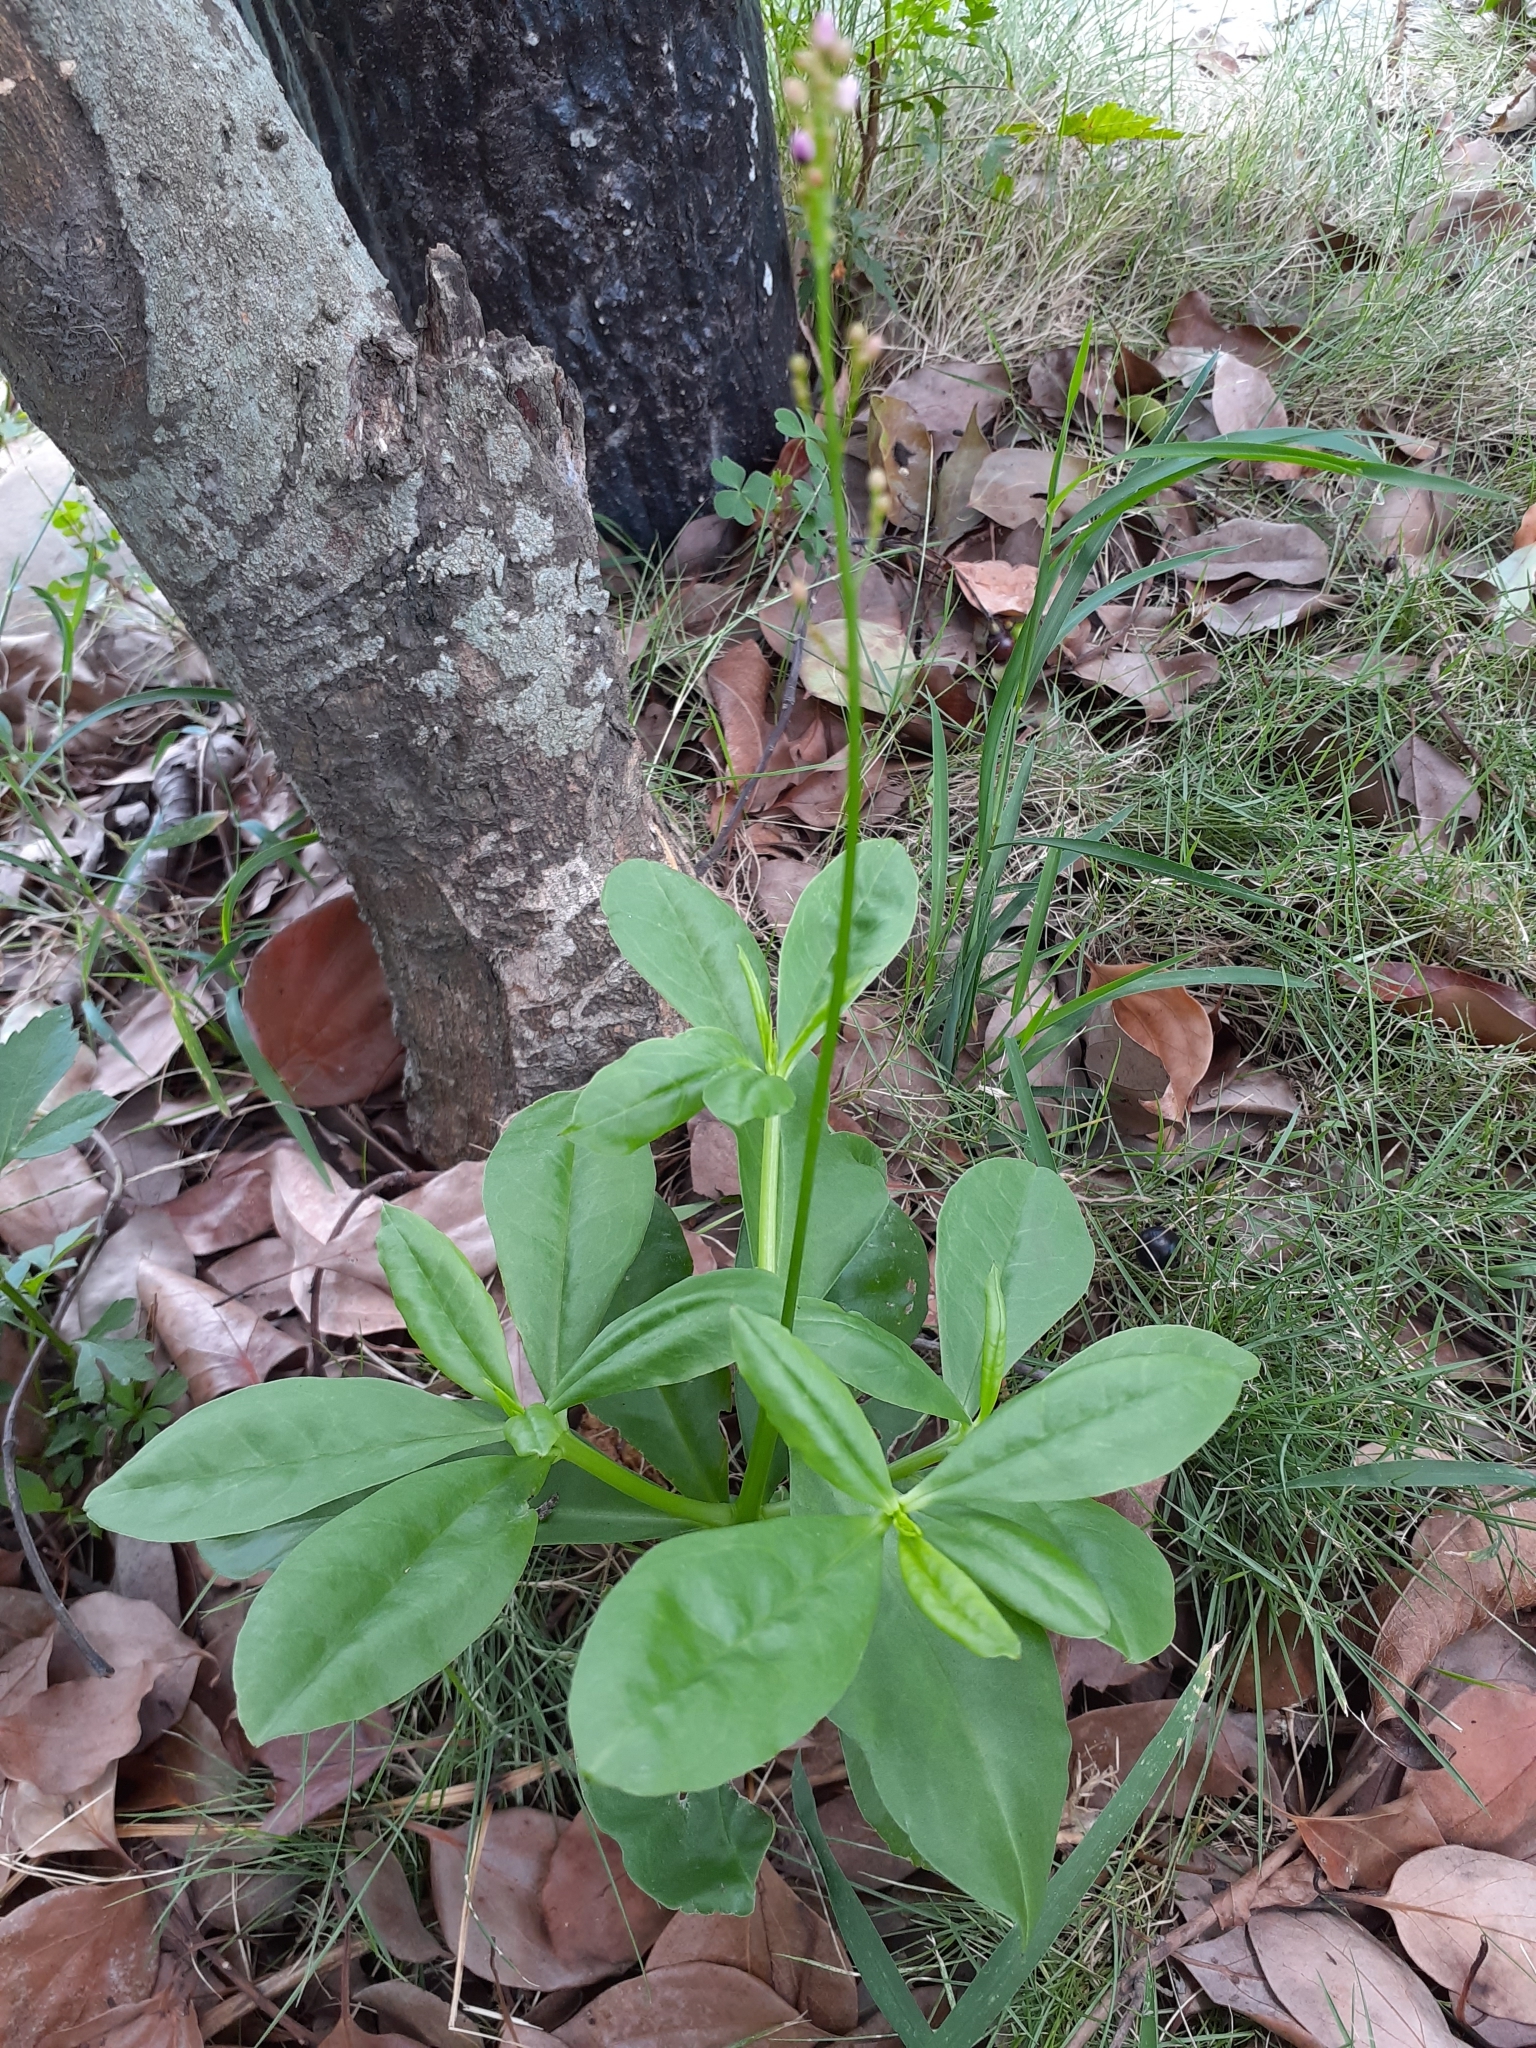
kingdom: Plantae
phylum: Tracheophyta
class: Magnoliopsida
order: Caryophyllales
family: Talinaceae
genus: Talinum
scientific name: Talinum paniculatum
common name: Jewels of opar
